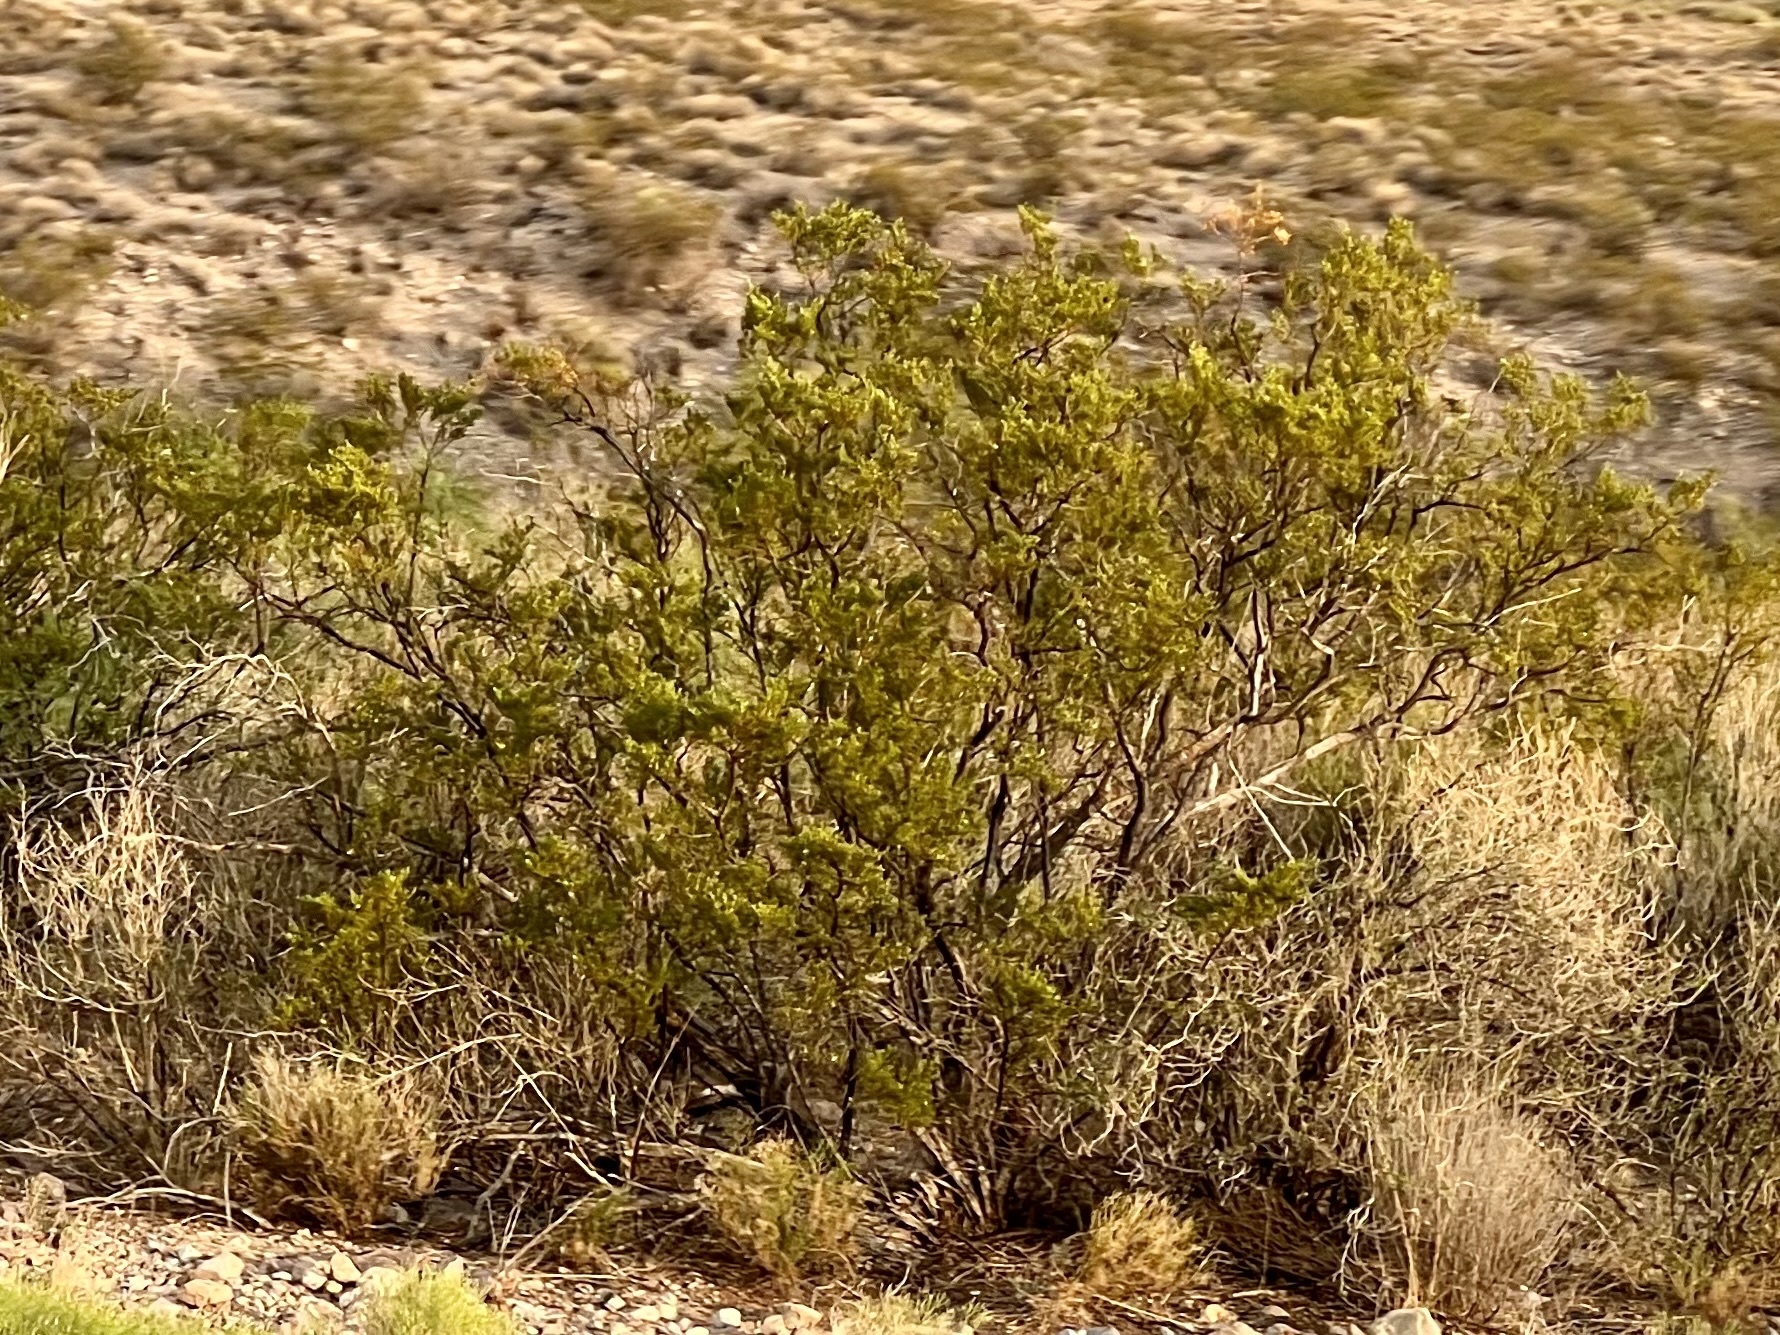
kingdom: Plantae
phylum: Tracheophyta
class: Magnoliopsida
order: Zygophyllales
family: Zygophyllaceae
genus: Larrea
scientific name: Larrea tridentata
